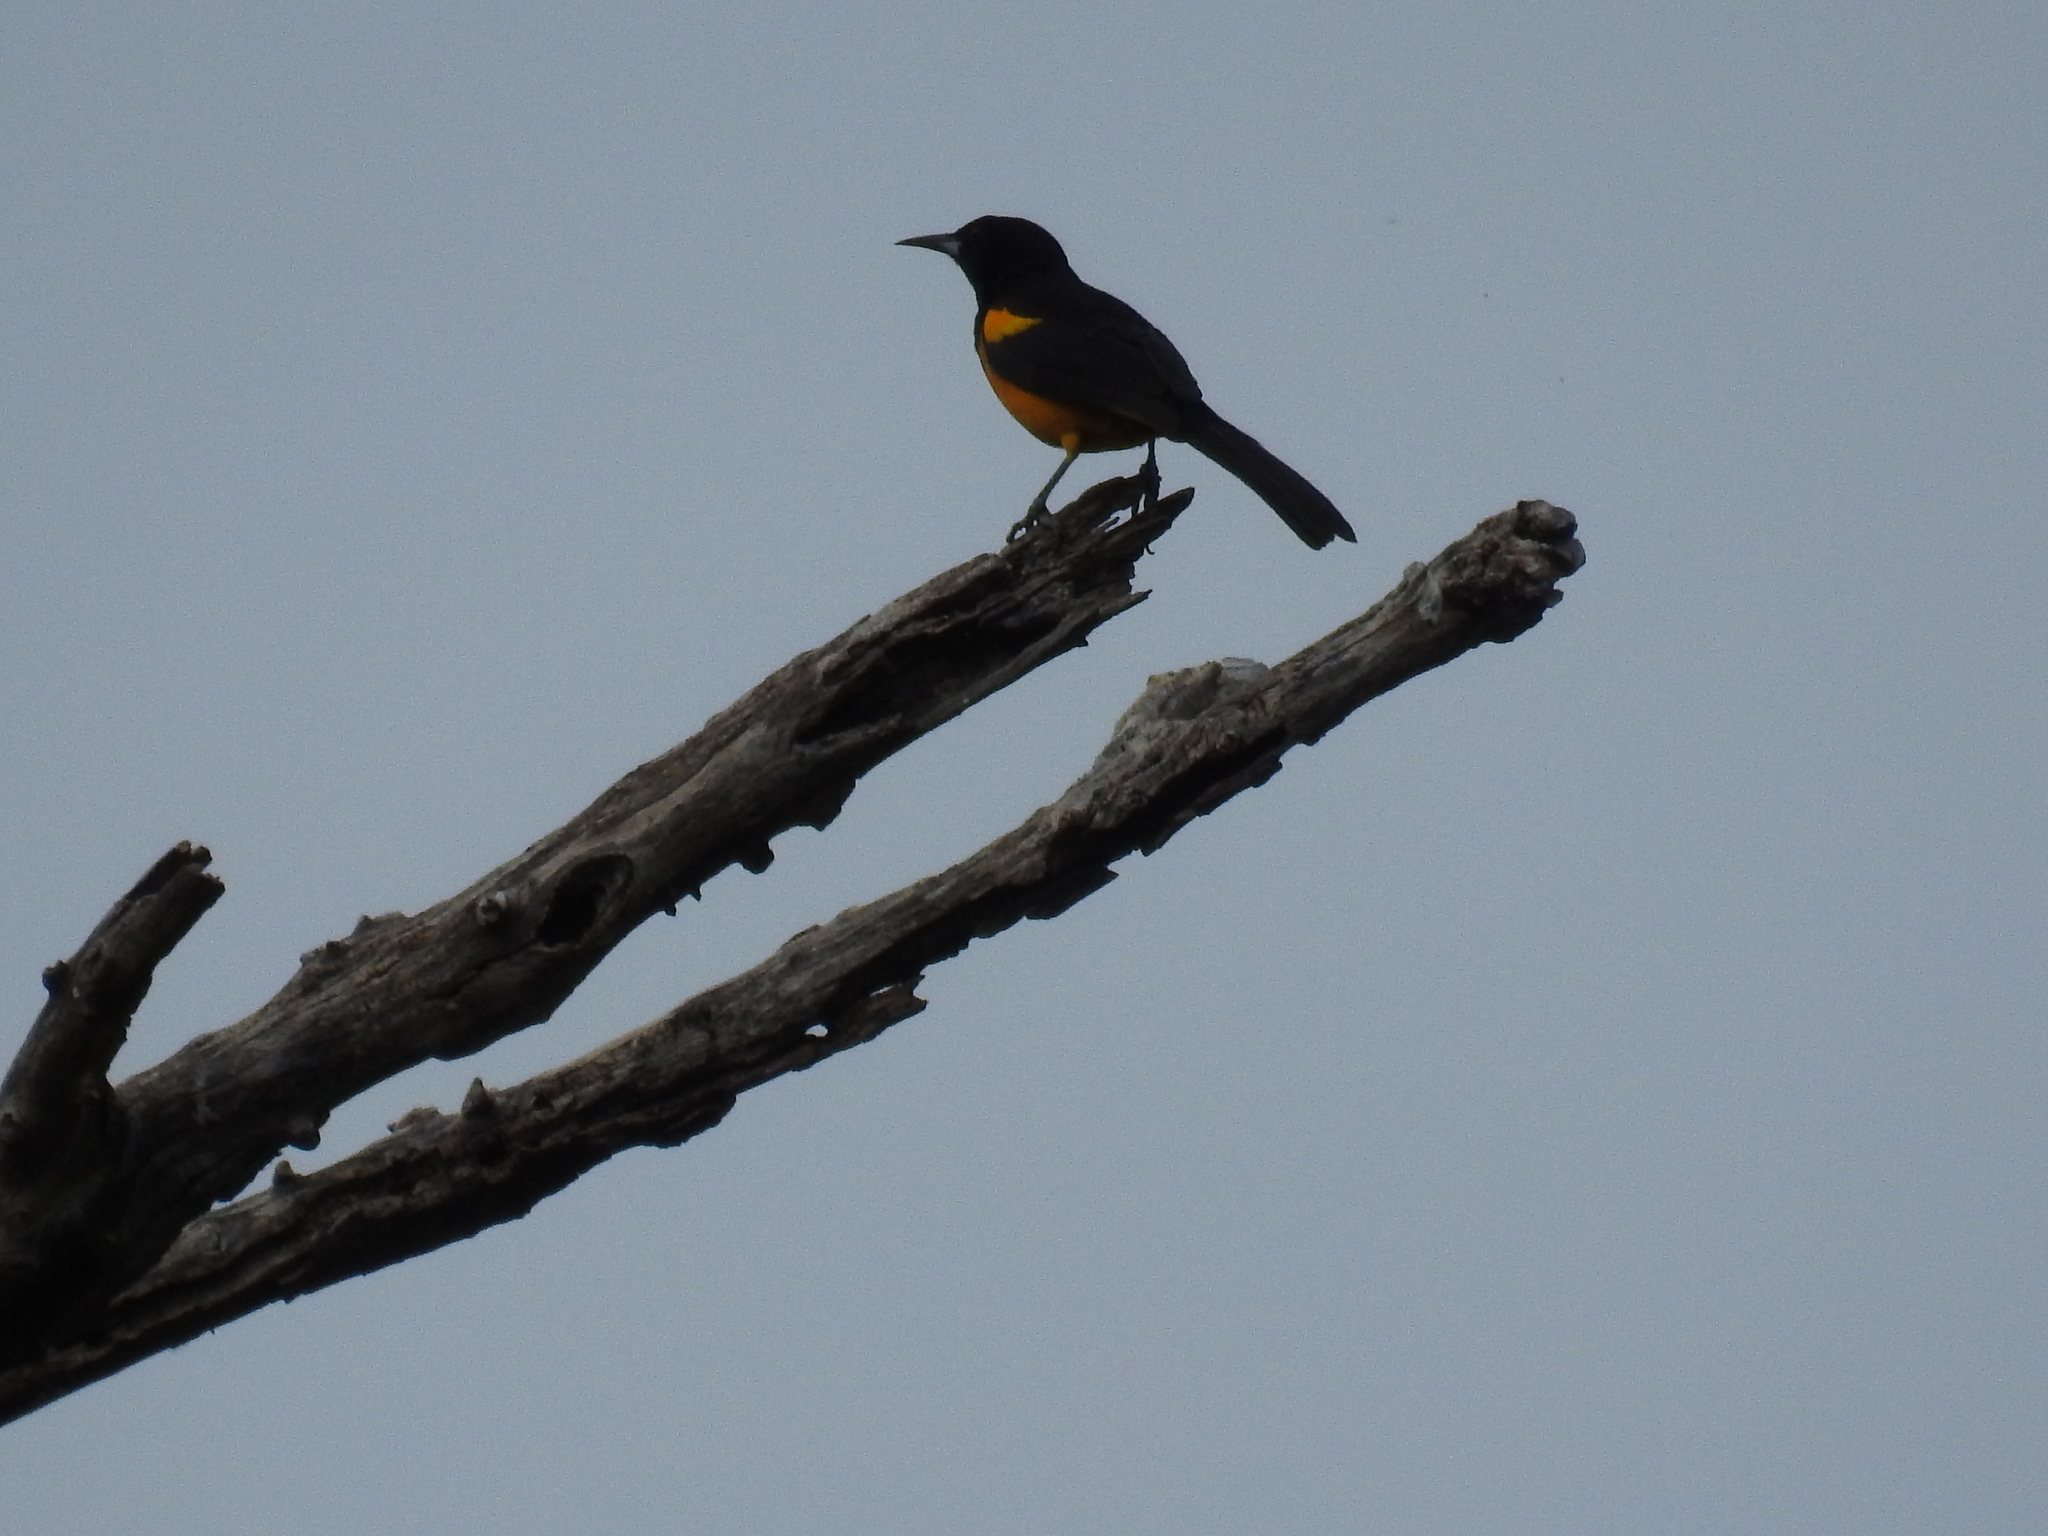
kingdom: Animalia
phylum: Chordata
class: Aves
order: Passeriformes
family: Icteridae
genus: Icterus
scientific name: Icterus wagleri
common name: Black-vented oriole
